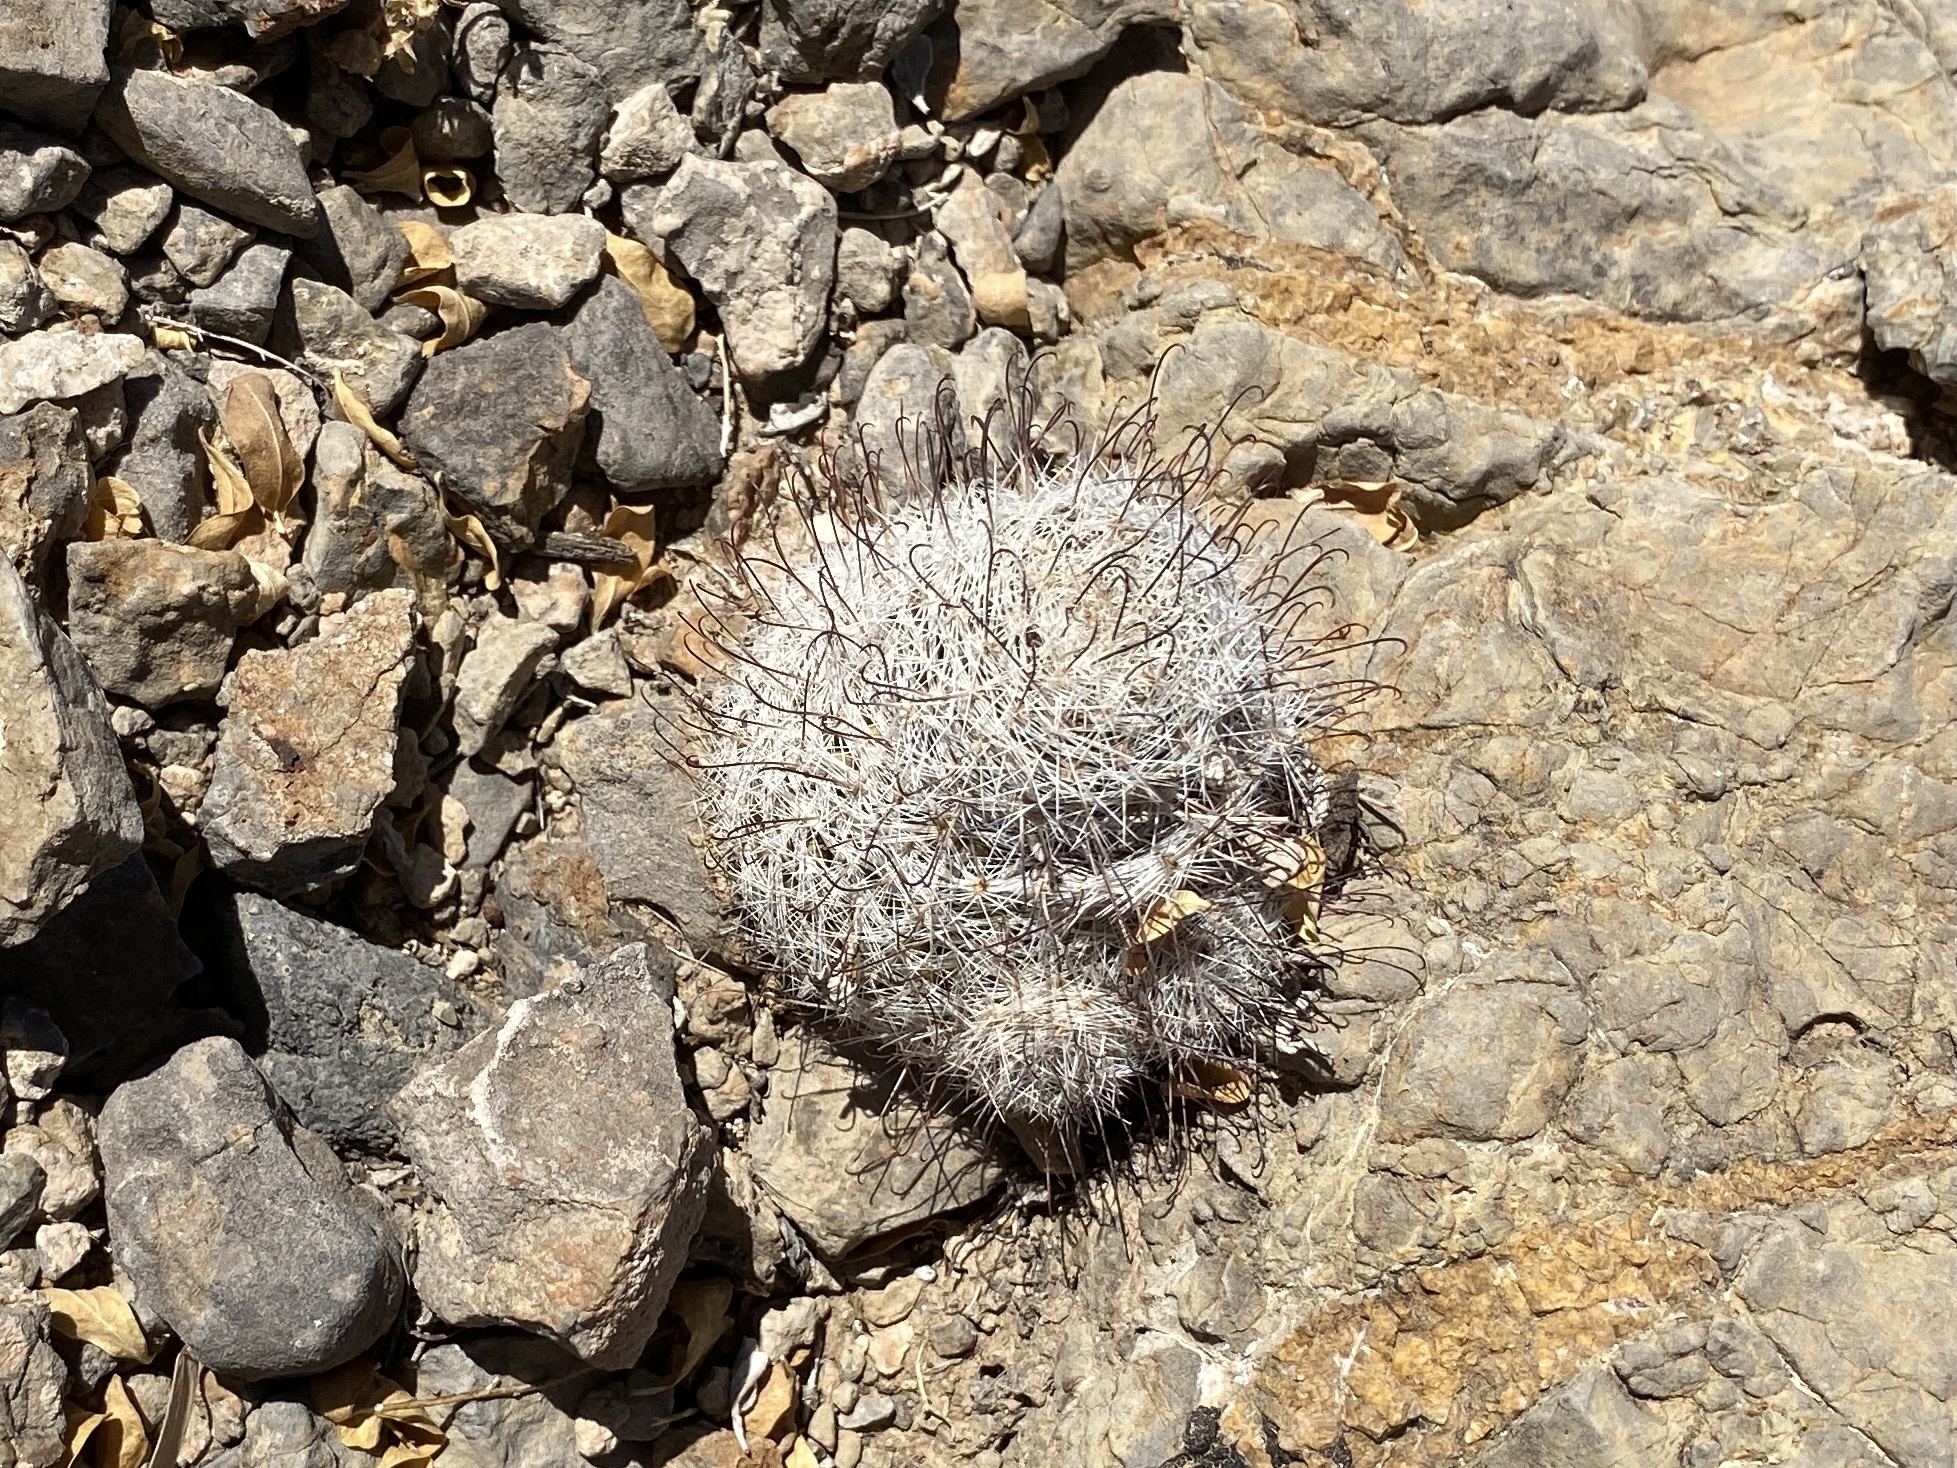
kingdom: Plantae
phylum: Tracheophyta
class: Magnoliopsida
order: Caryophyllales
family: Cactaceae
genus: Cochemiea
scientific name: Cochemiea grahamii
